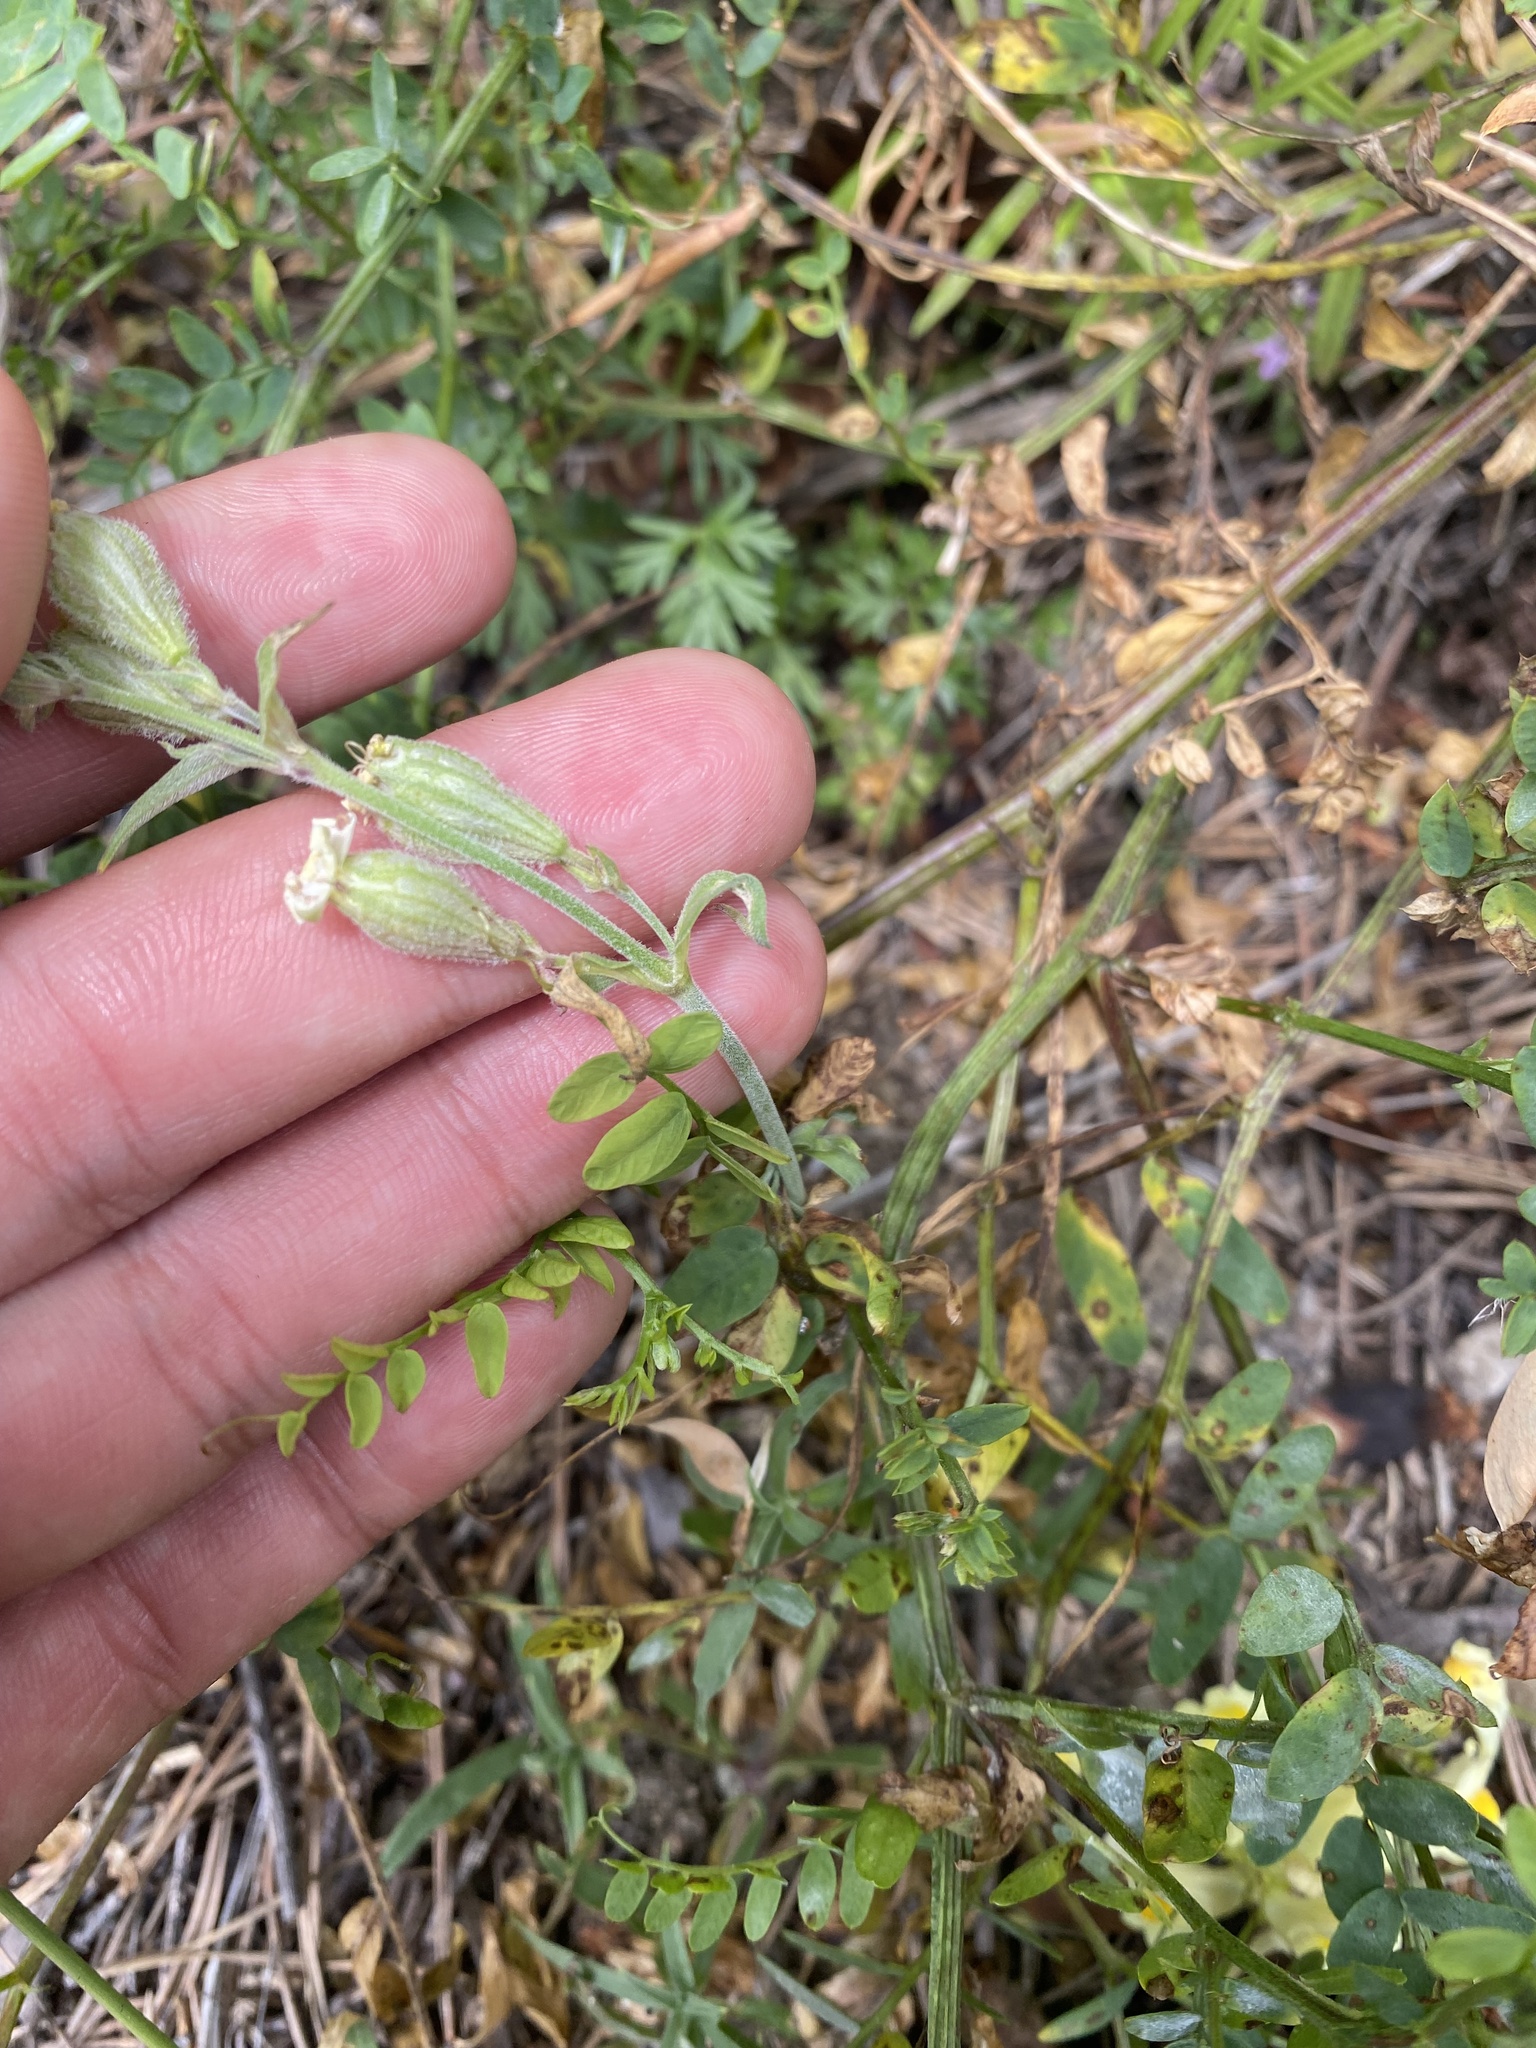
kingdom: Plantae
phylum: Tracheophyta
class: Magnoliopsida
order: Caryophyllales
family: Caryophyllaceae
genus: Silene
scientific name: Silene amoena
